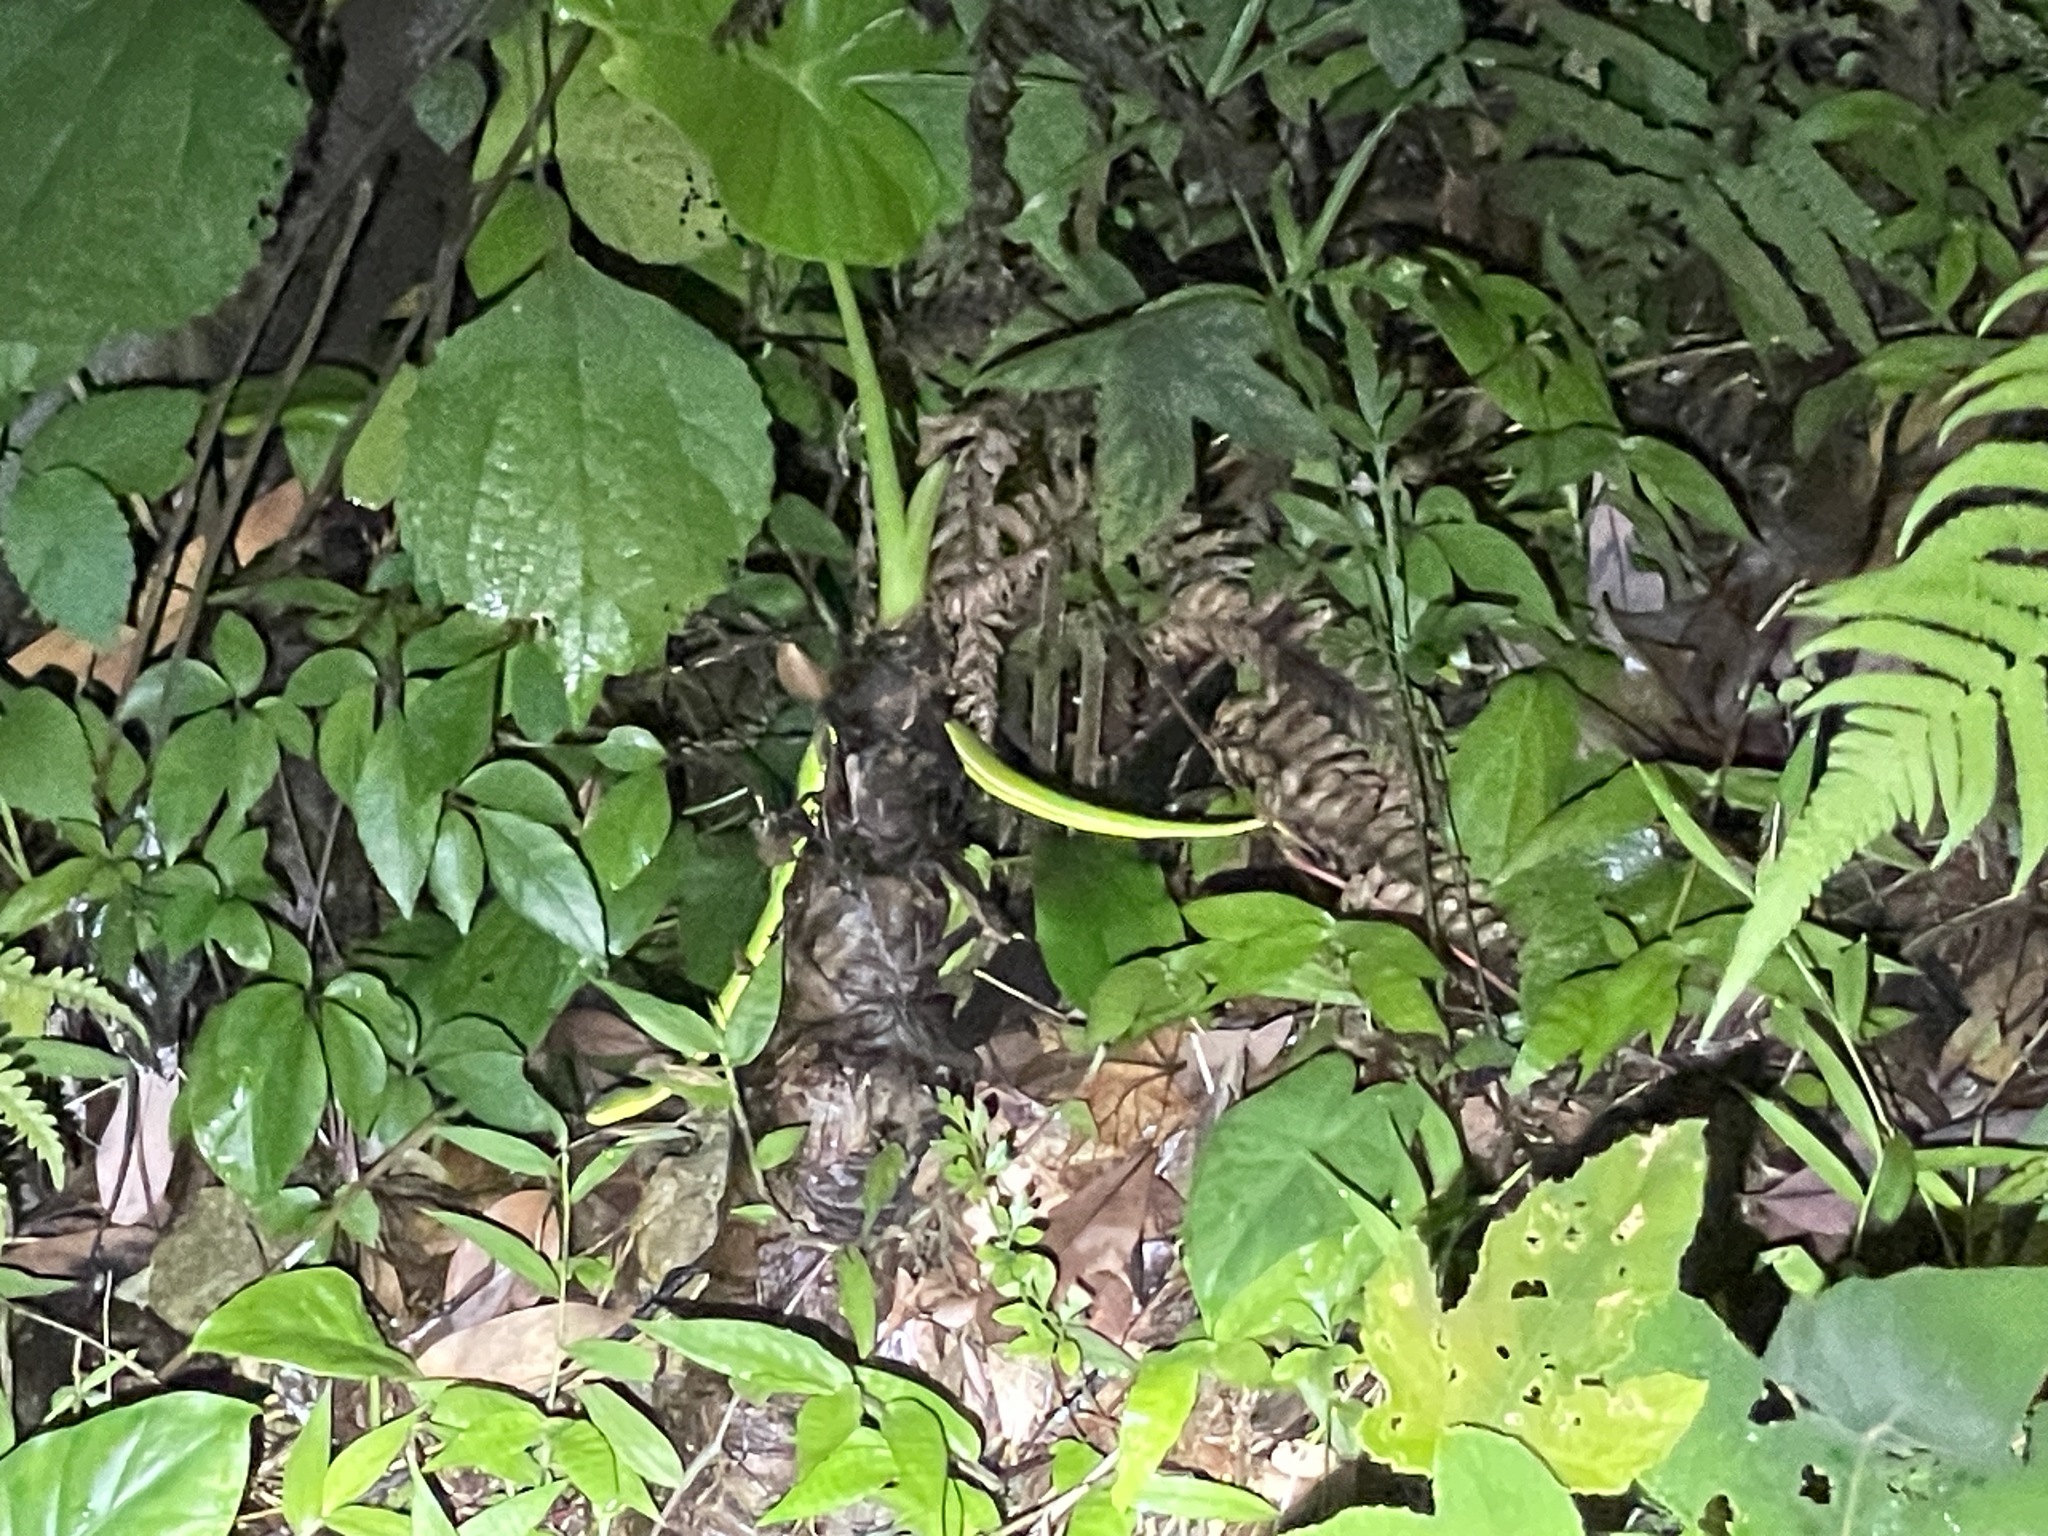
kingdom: Animalia
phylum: Chordata
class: Squamata
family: Viperidae
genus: Trimeresurus
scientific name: Trimeresurus albolabris
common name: White-lipped pitviper
